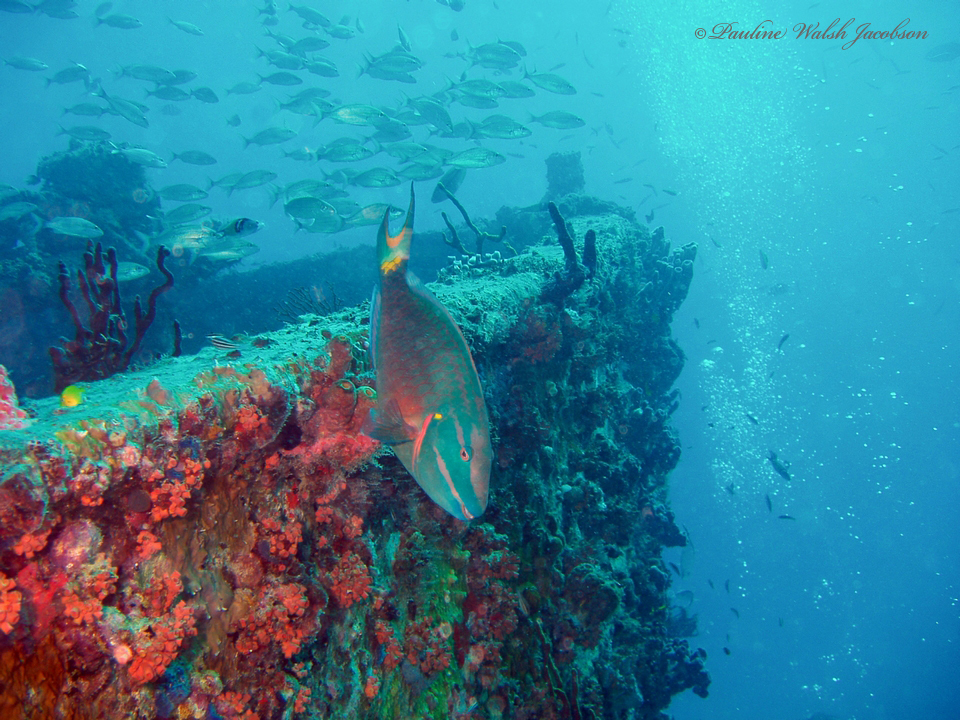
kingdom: Animalia
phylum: Chordata
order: Perciformes
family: Scaridae
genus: Sparisoma
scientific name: Sparisoma viride
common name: Stoplight parrotfish
